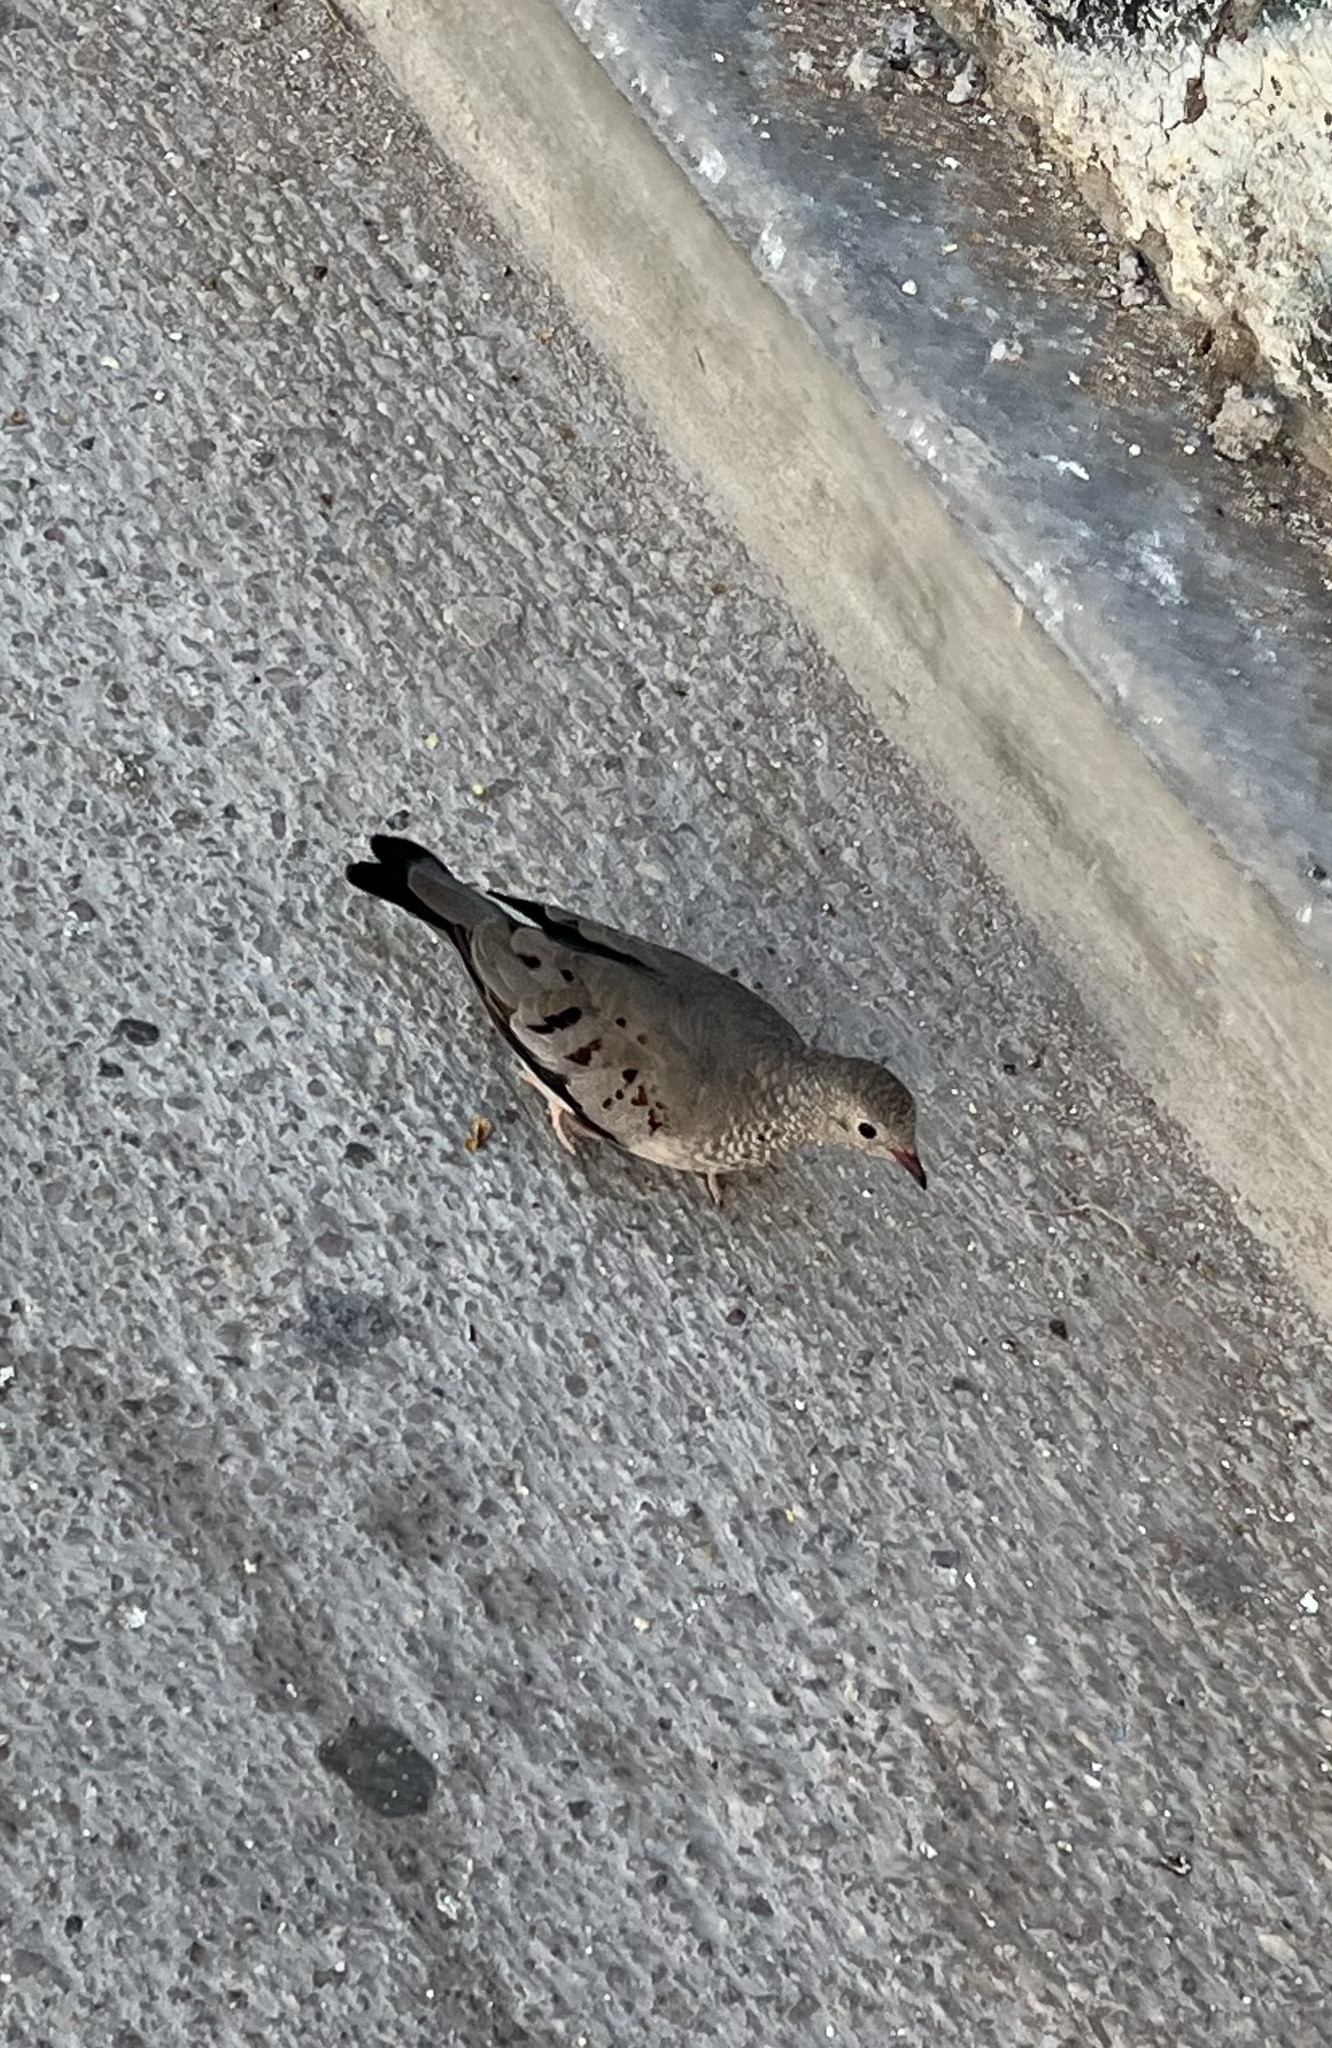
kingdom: Animalia
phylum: Chordata
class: Aves
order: Columbiformes
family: Columbidae
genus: Columbina
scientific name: Columbina passerina
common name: Common ground-dove
